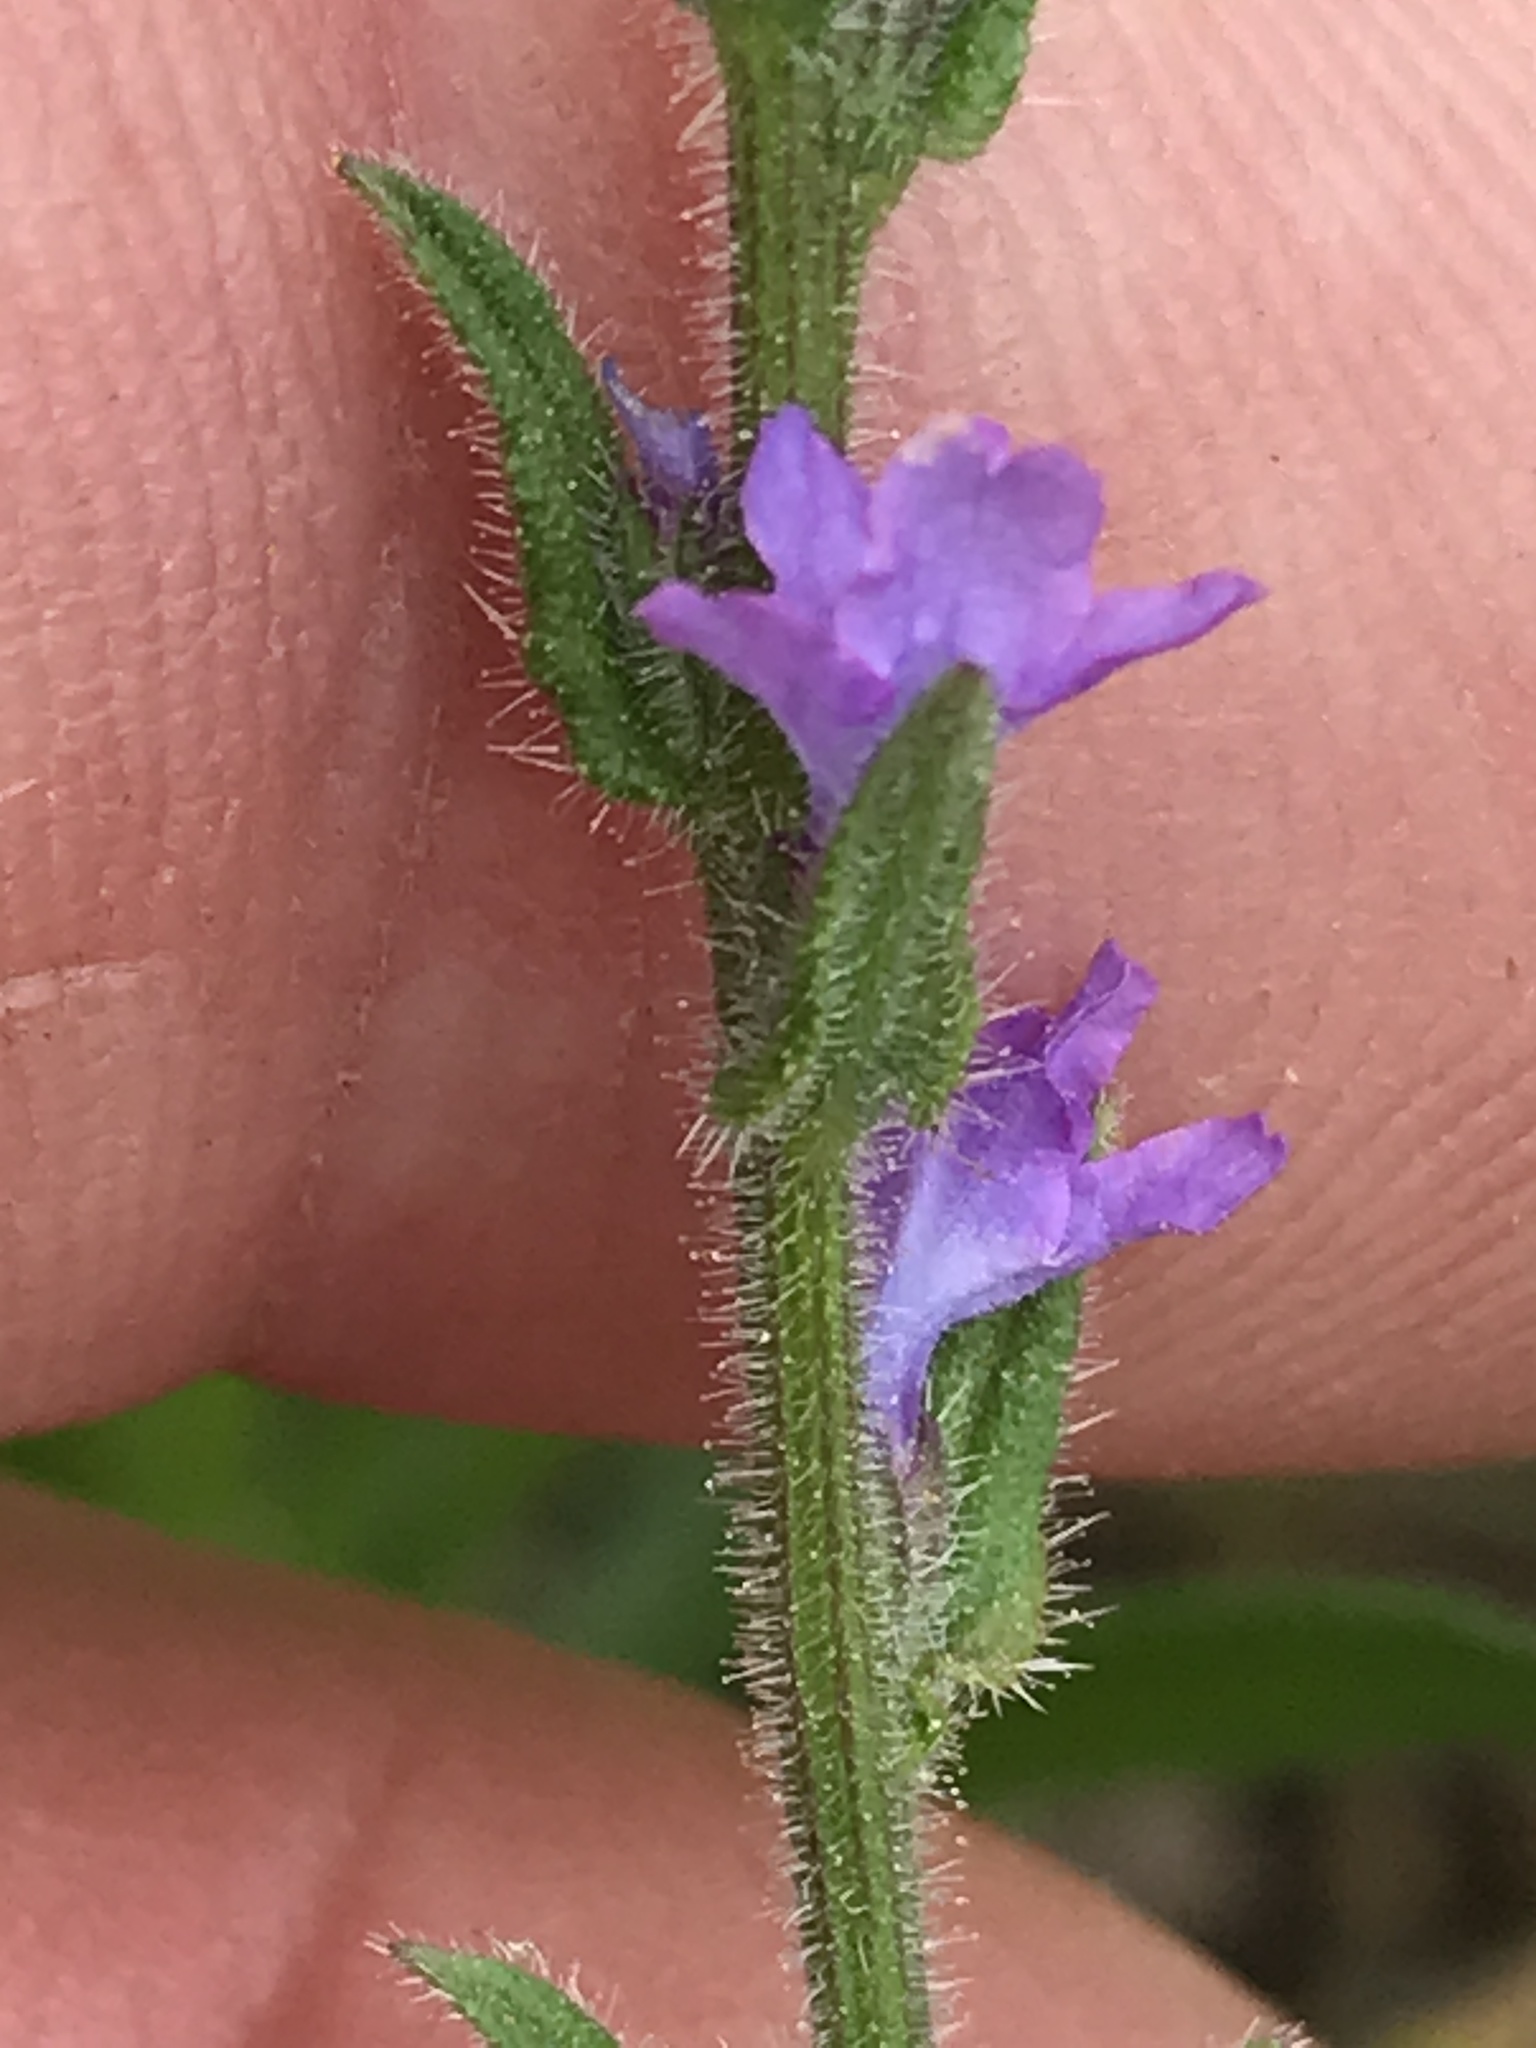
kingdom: Plantae
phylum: Tracheophyta
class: Magnoliopsida
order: Lamiales
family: Verbenaceae
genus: Verbena
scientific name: Verbena canescens
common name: Gray vervain
